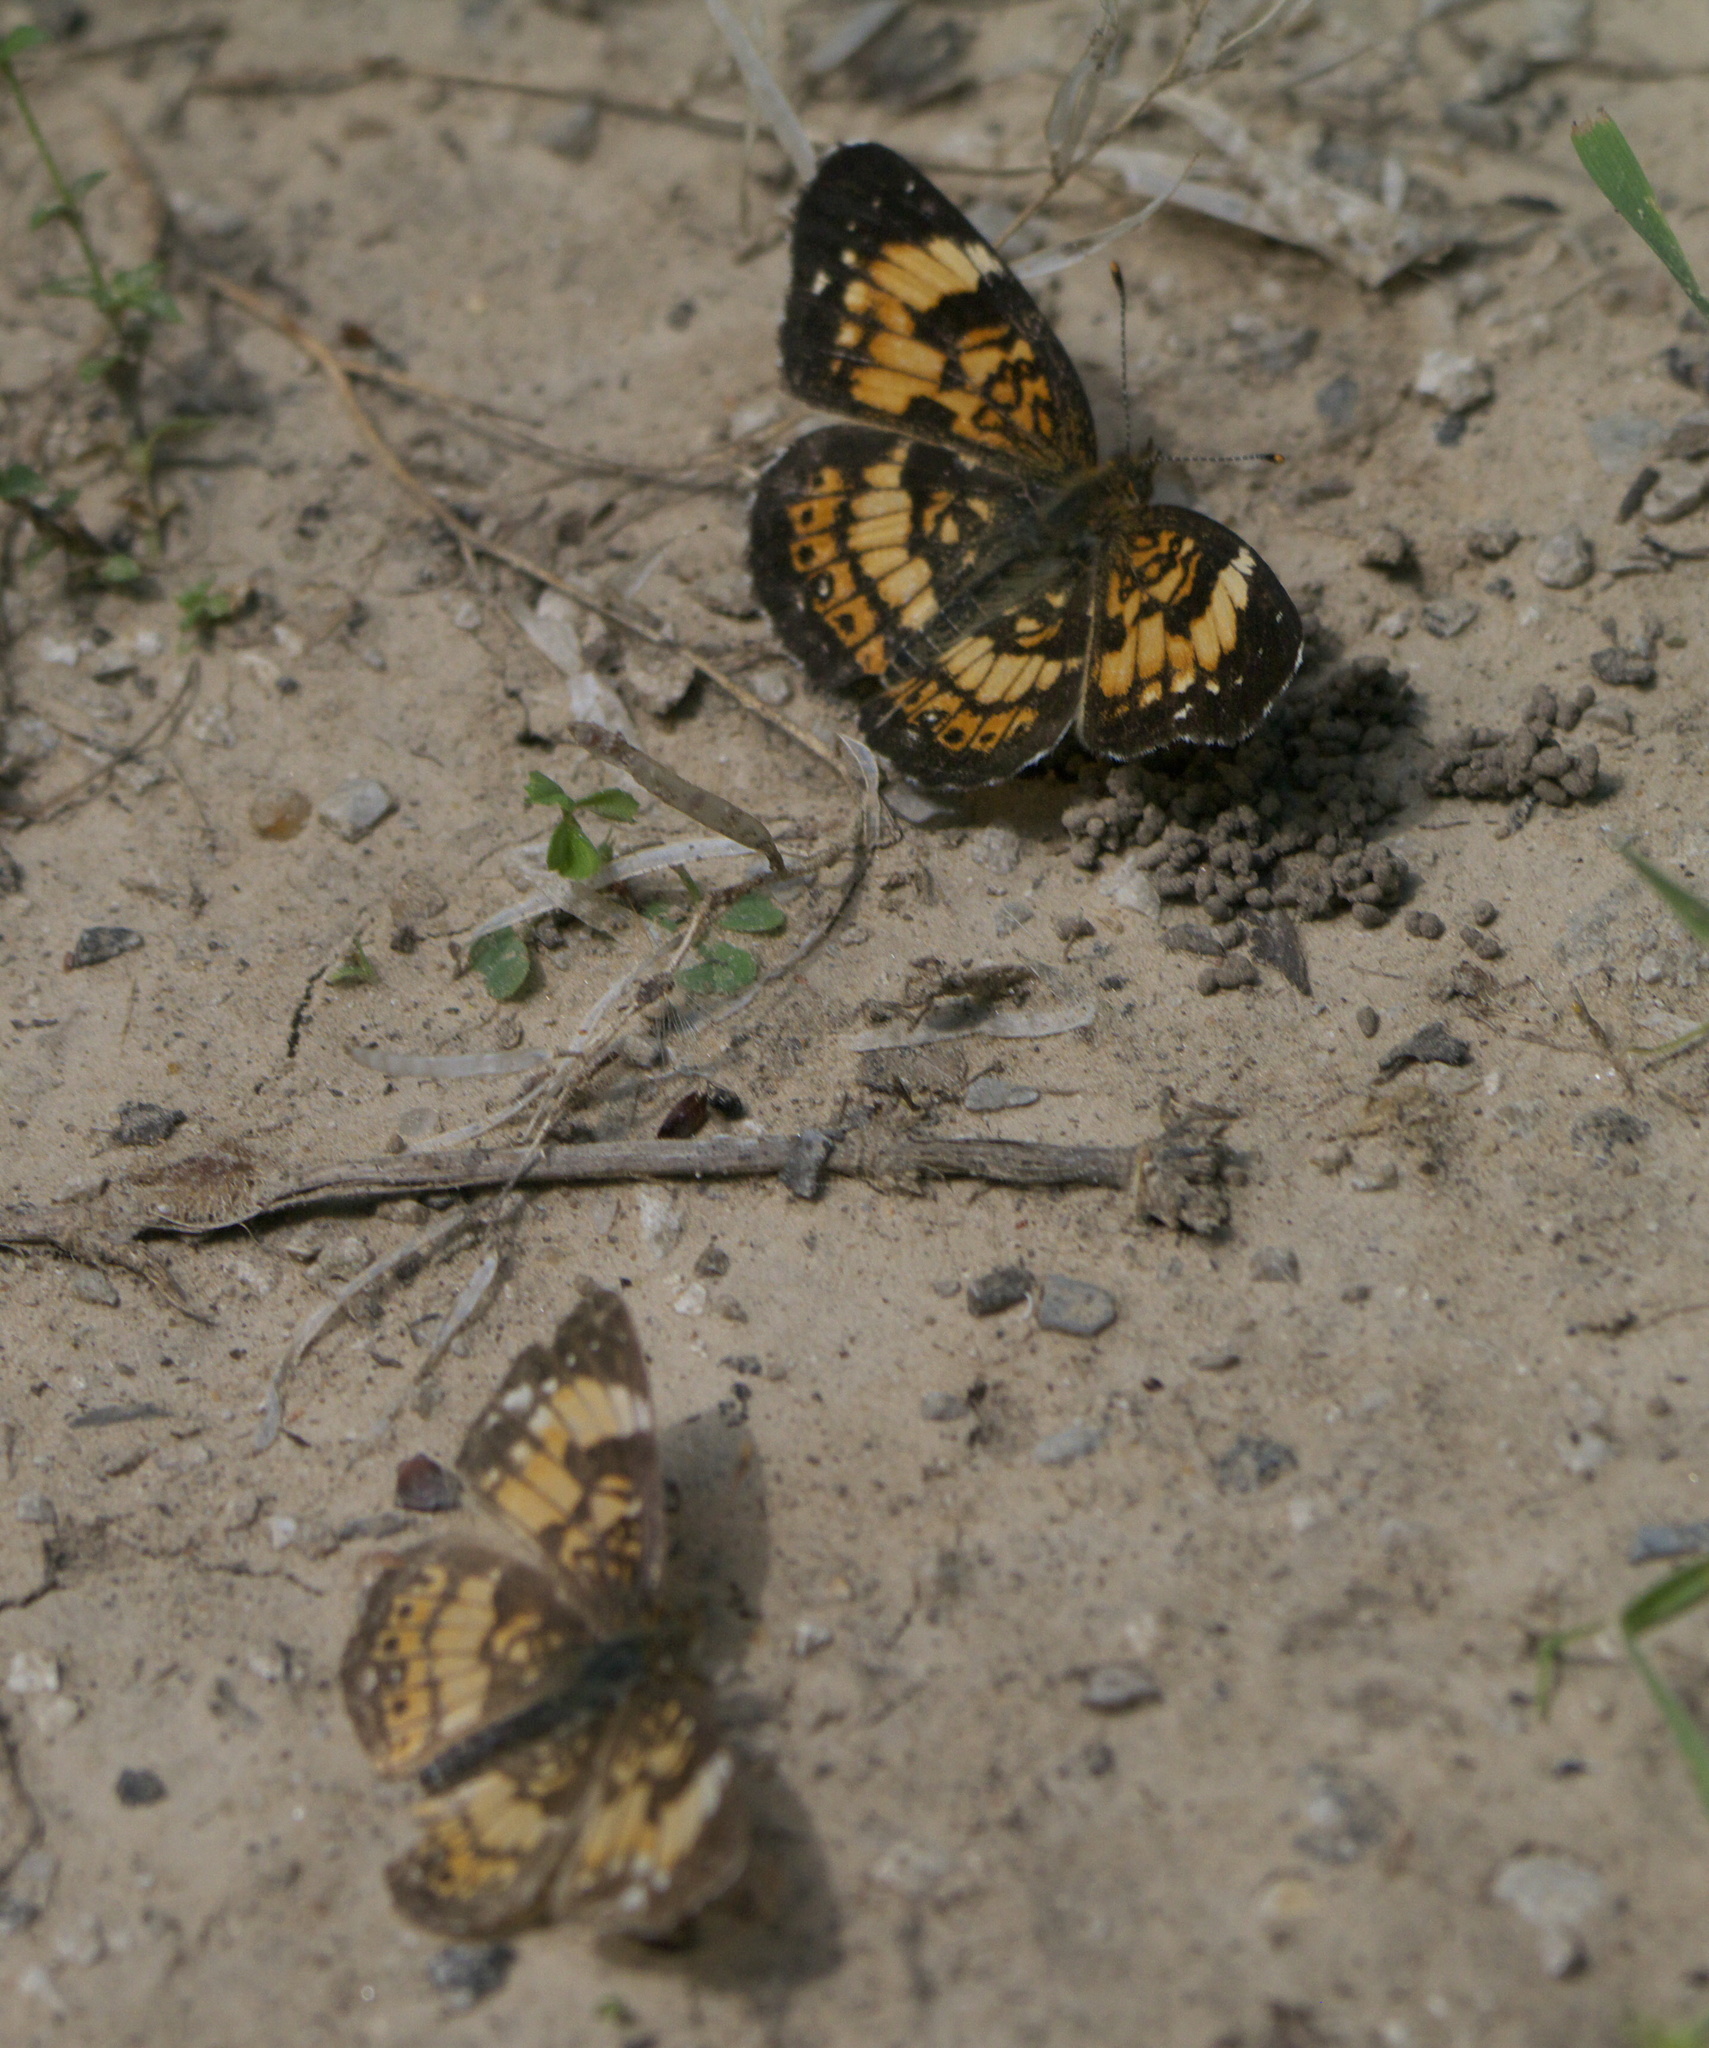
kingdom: Animalia
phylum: Arthropoda
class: Insecta
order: Lepidoptera
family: Nymphalidae
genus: Chlosyne
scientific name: Chlosyne nycteis
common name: Silvery checkerspot
